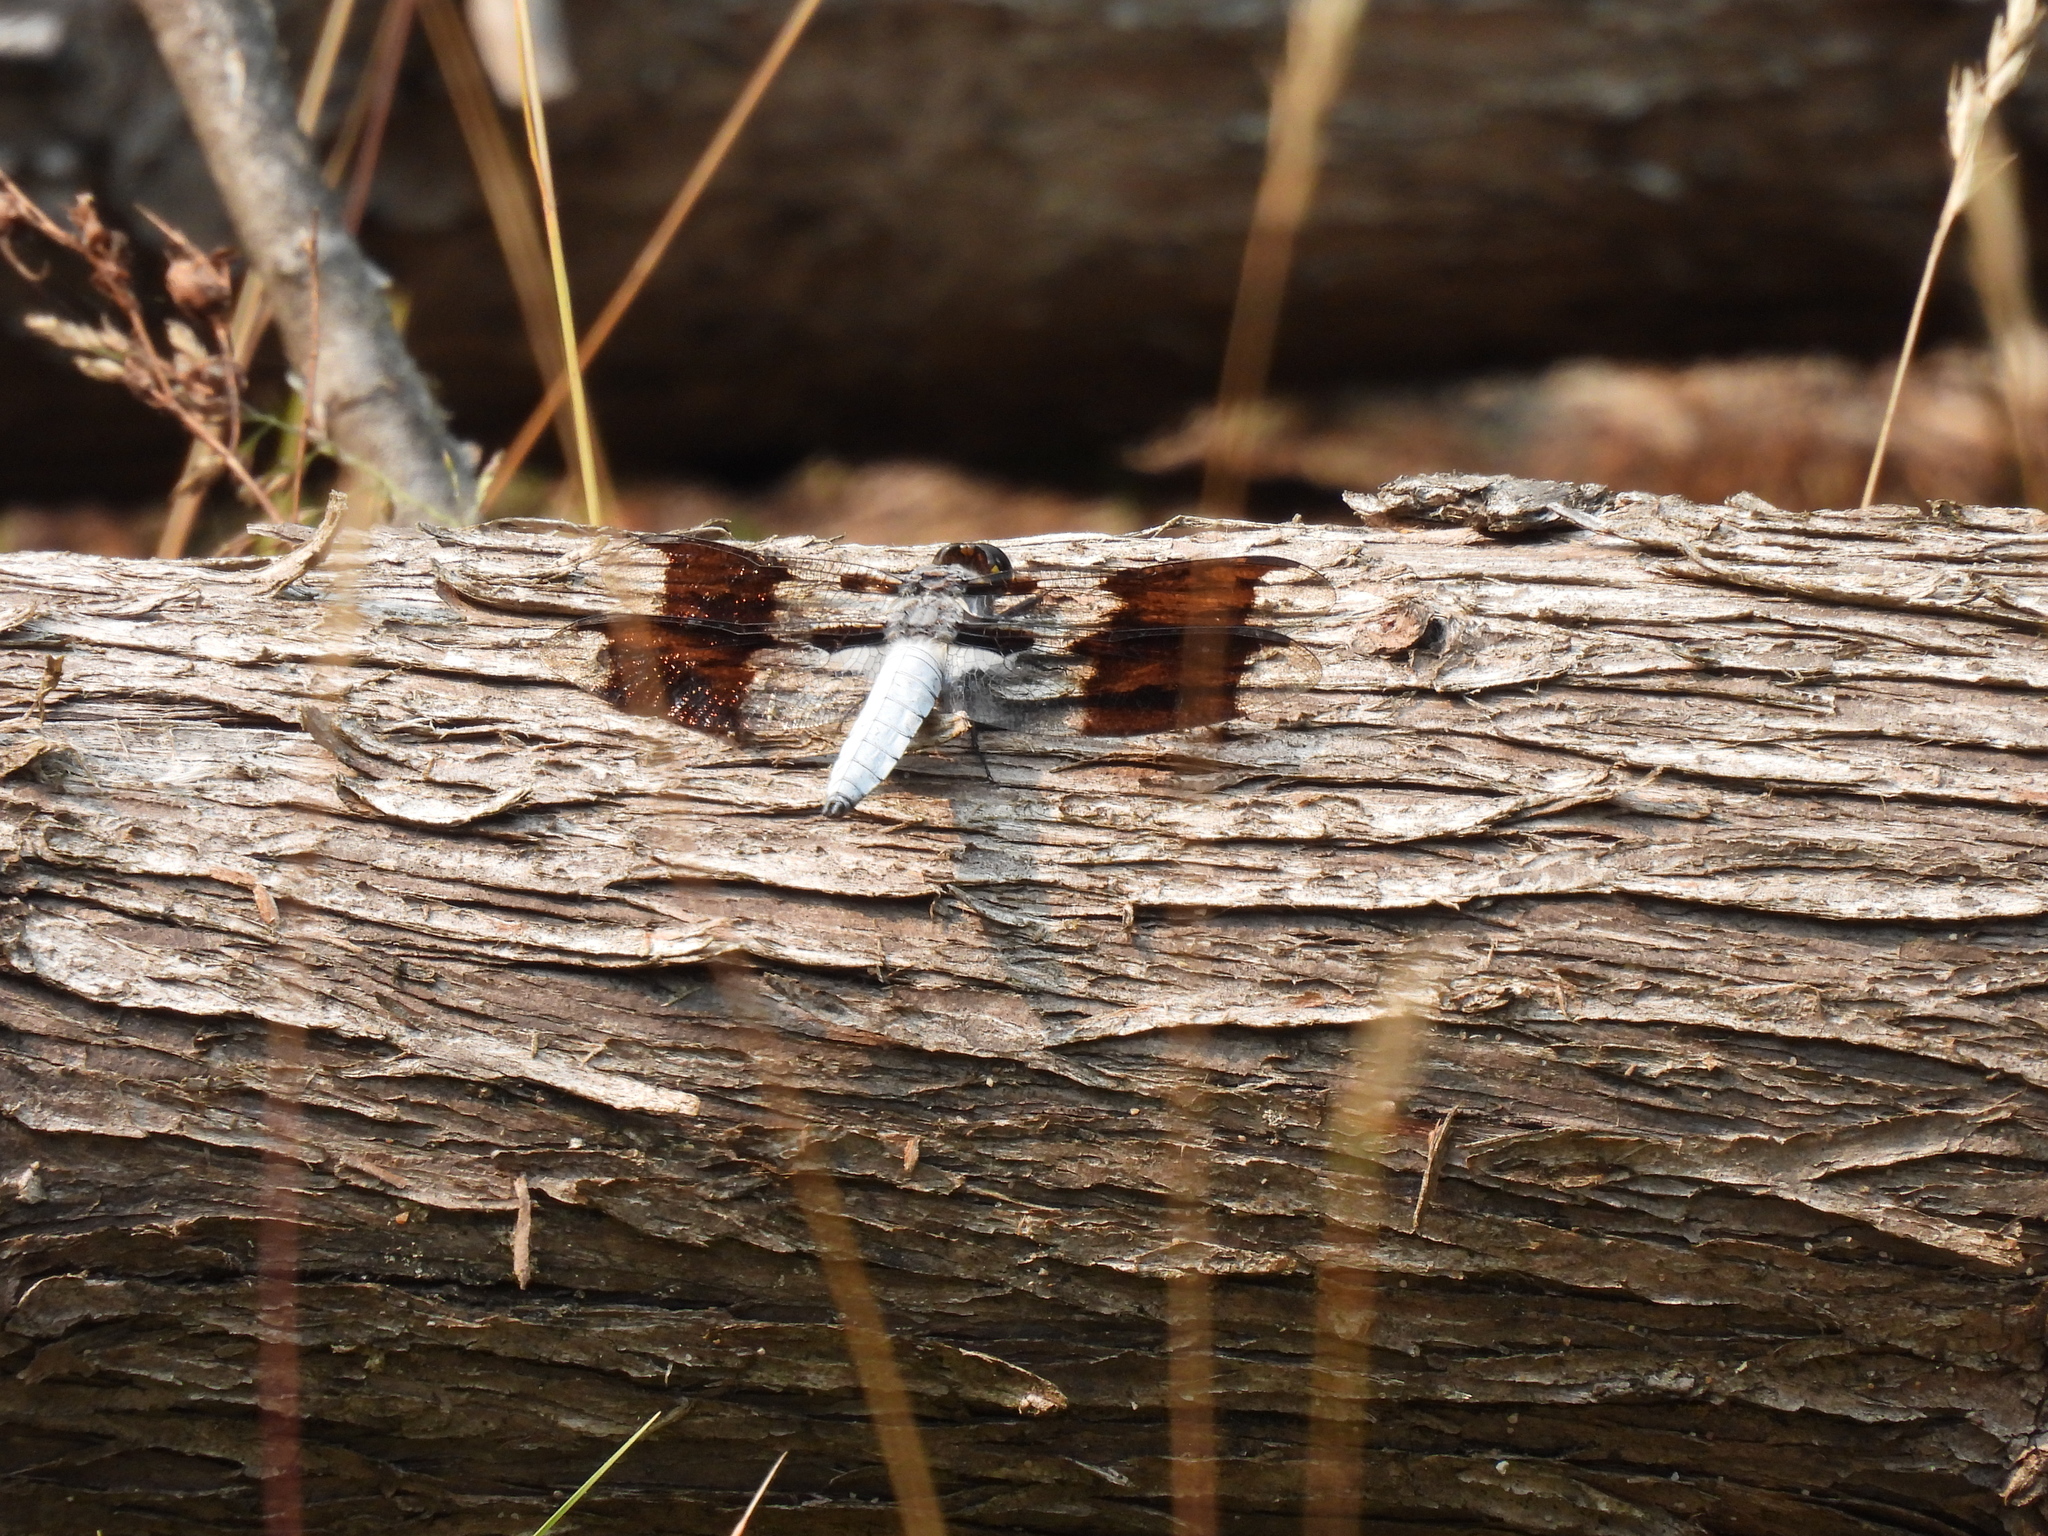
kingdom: Animalia
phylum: Arthropoda
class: Insecta
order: Odonata
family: Libellulidae
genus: Plathemis
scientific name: Plathemis lydia
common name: Common whitetail
